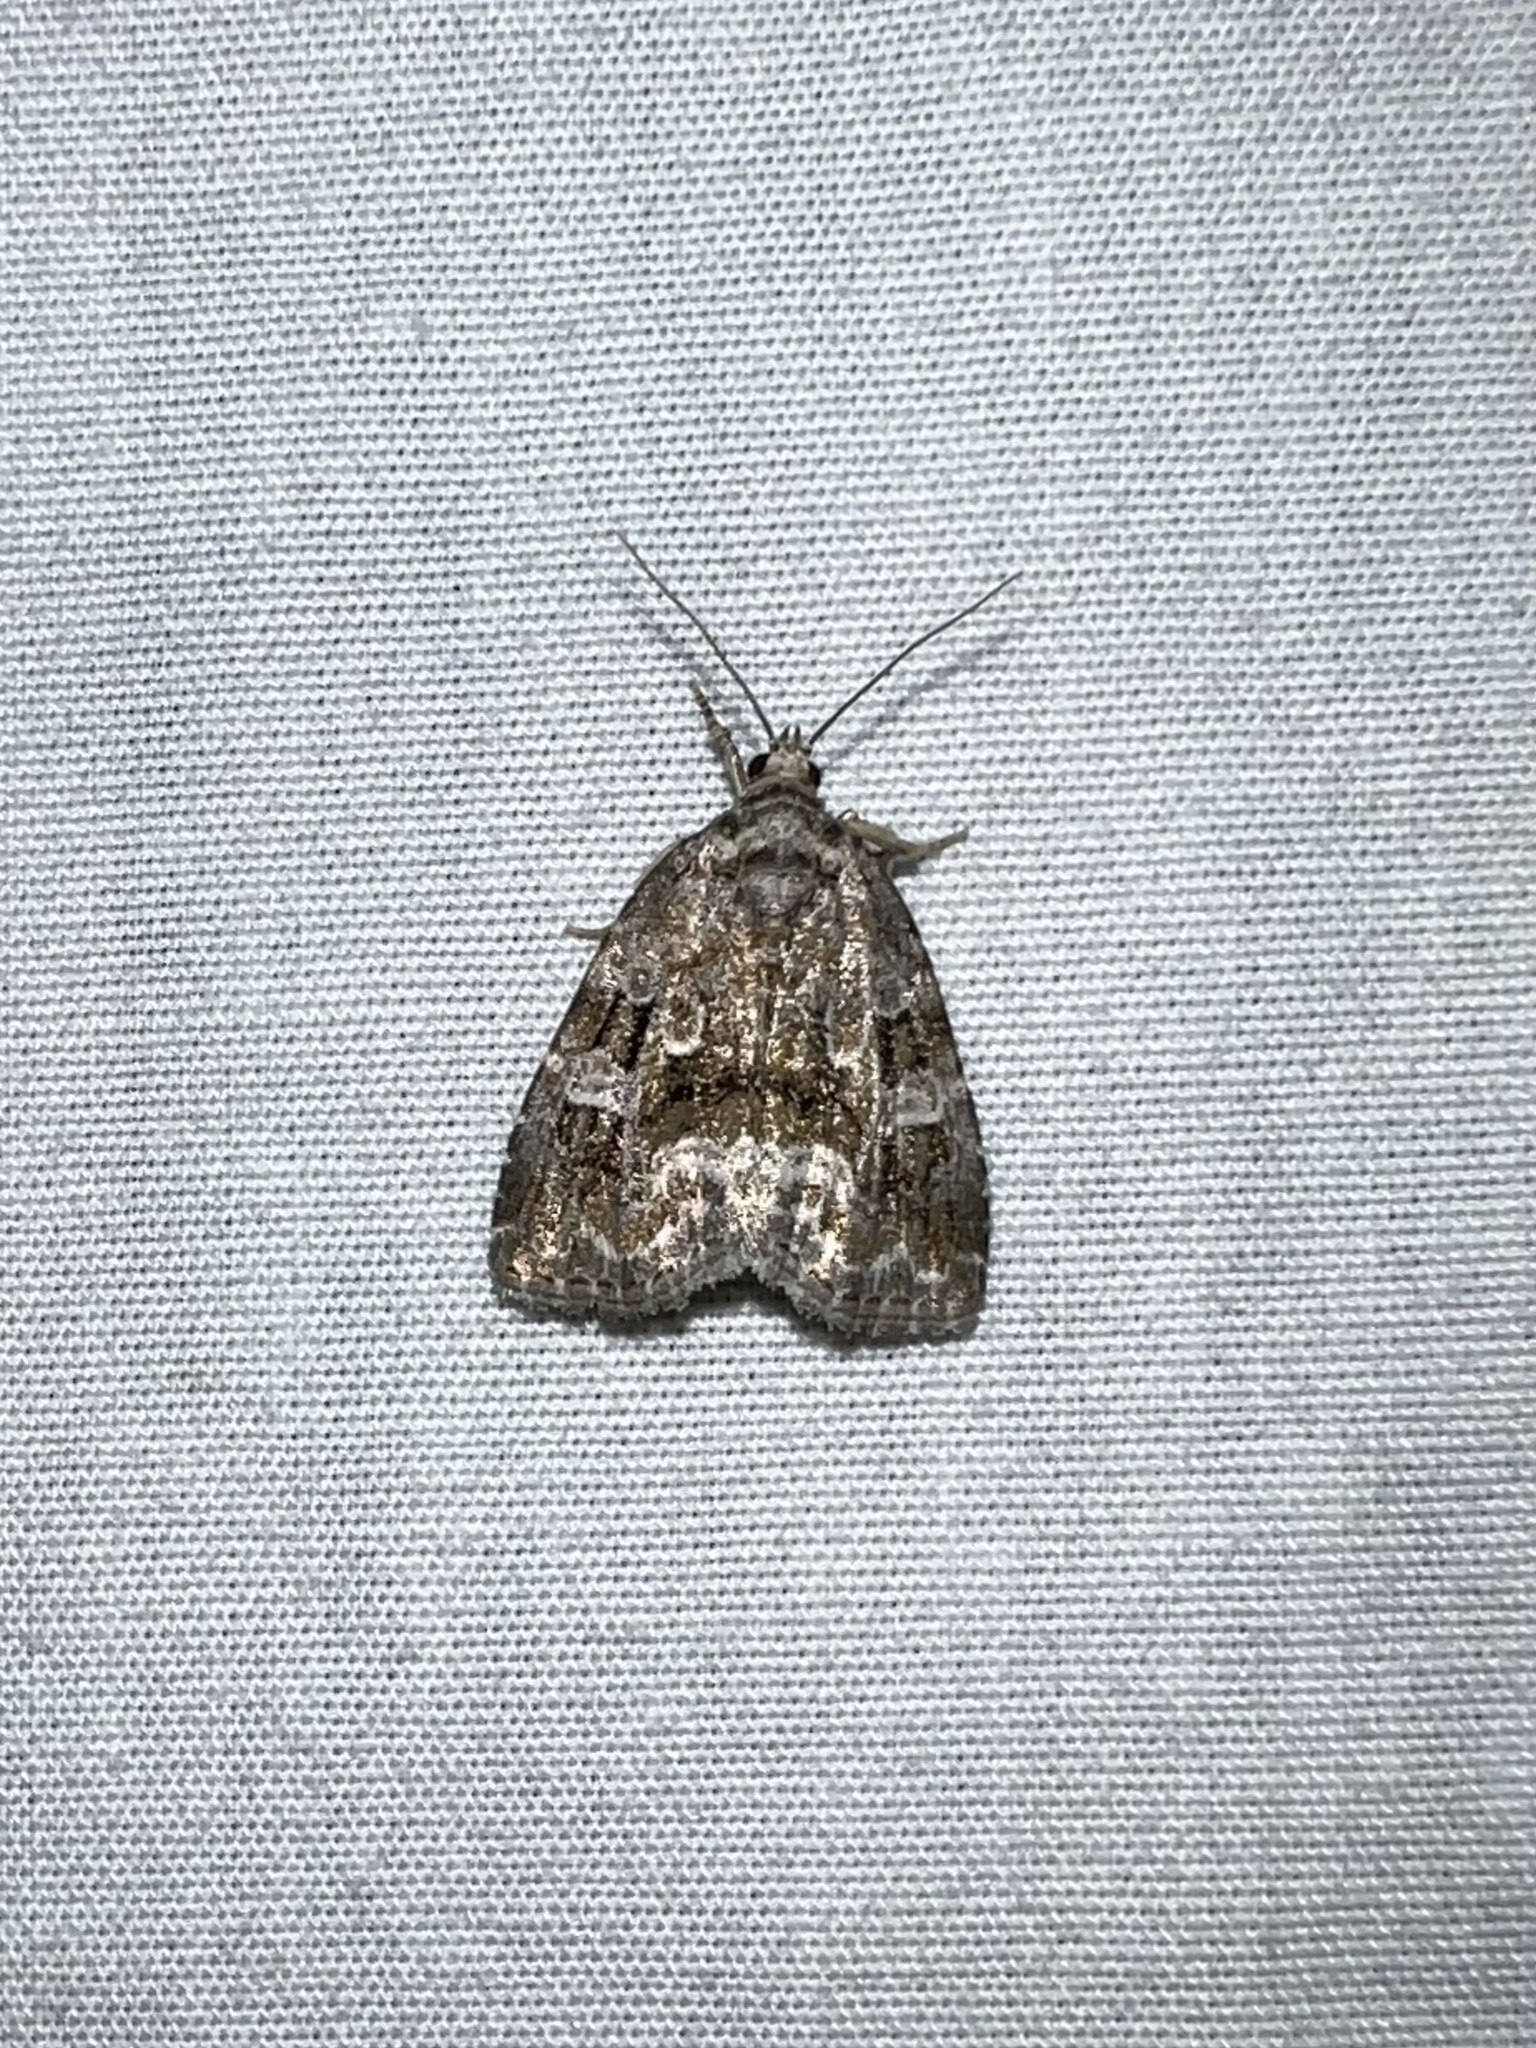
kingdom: Animalia
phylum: Arthropoda
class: Insecta
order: Lepidoptera
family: Noctuidae
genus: Protodeltote
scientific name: Protodeltote muscosula
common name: Large mossy glyph
